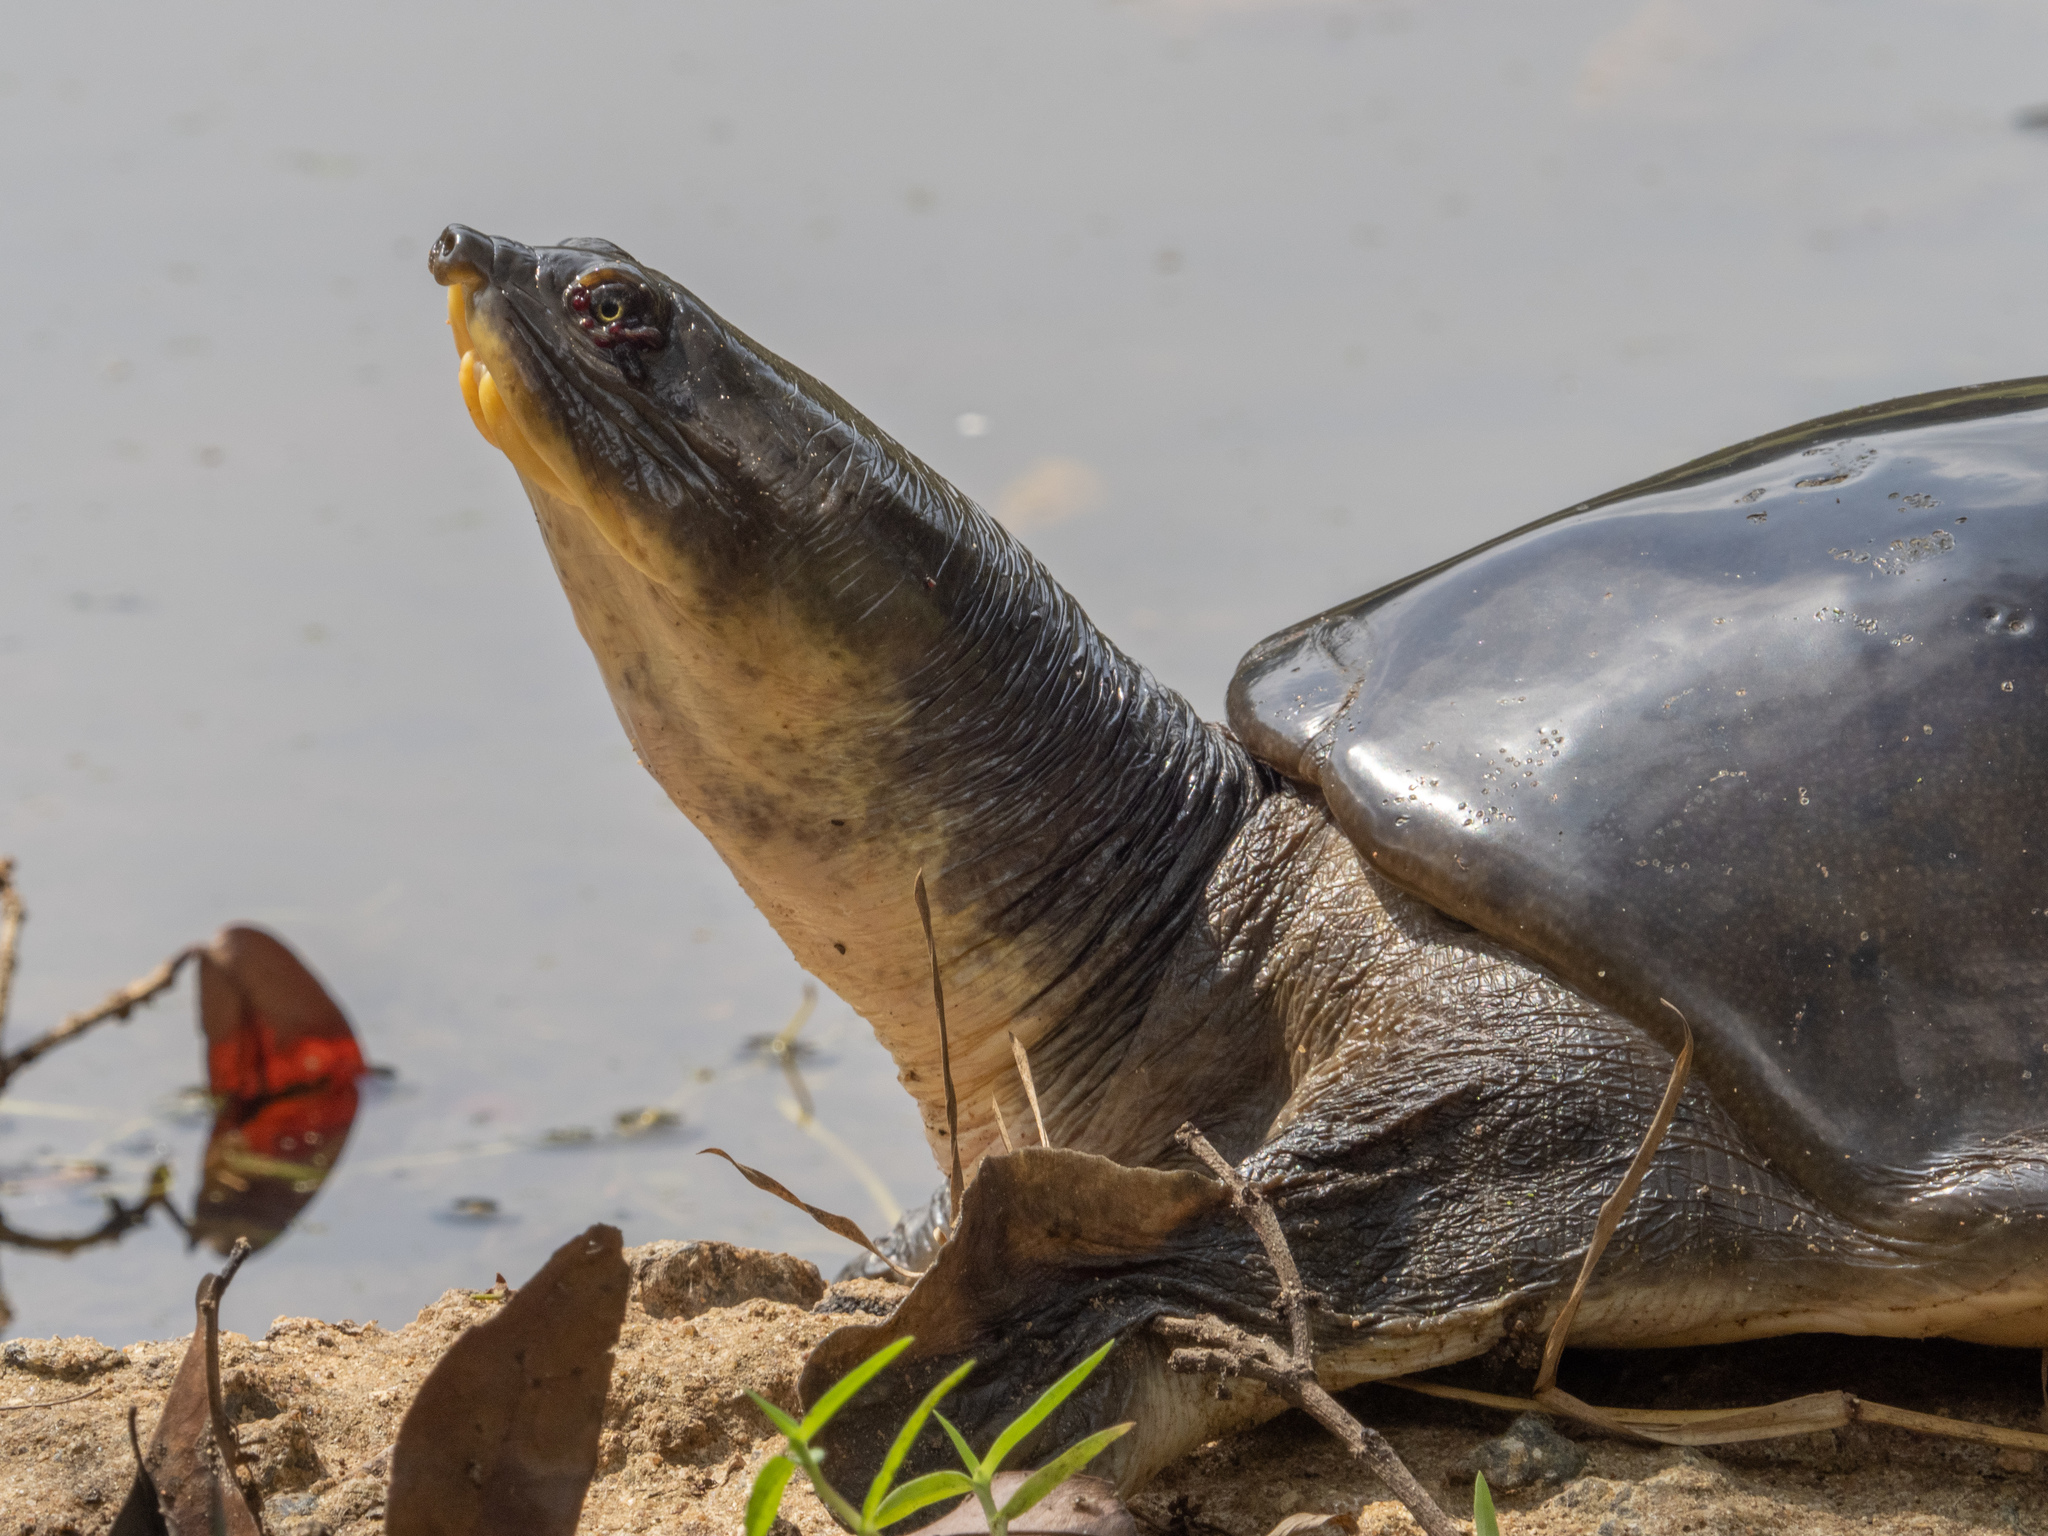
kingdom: Animalia
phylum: Chordata
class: Testudines
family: Trionychidae
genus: Lissemys
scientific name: Lissemys ceylonensis
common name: Sri lankan flapshell turtle
